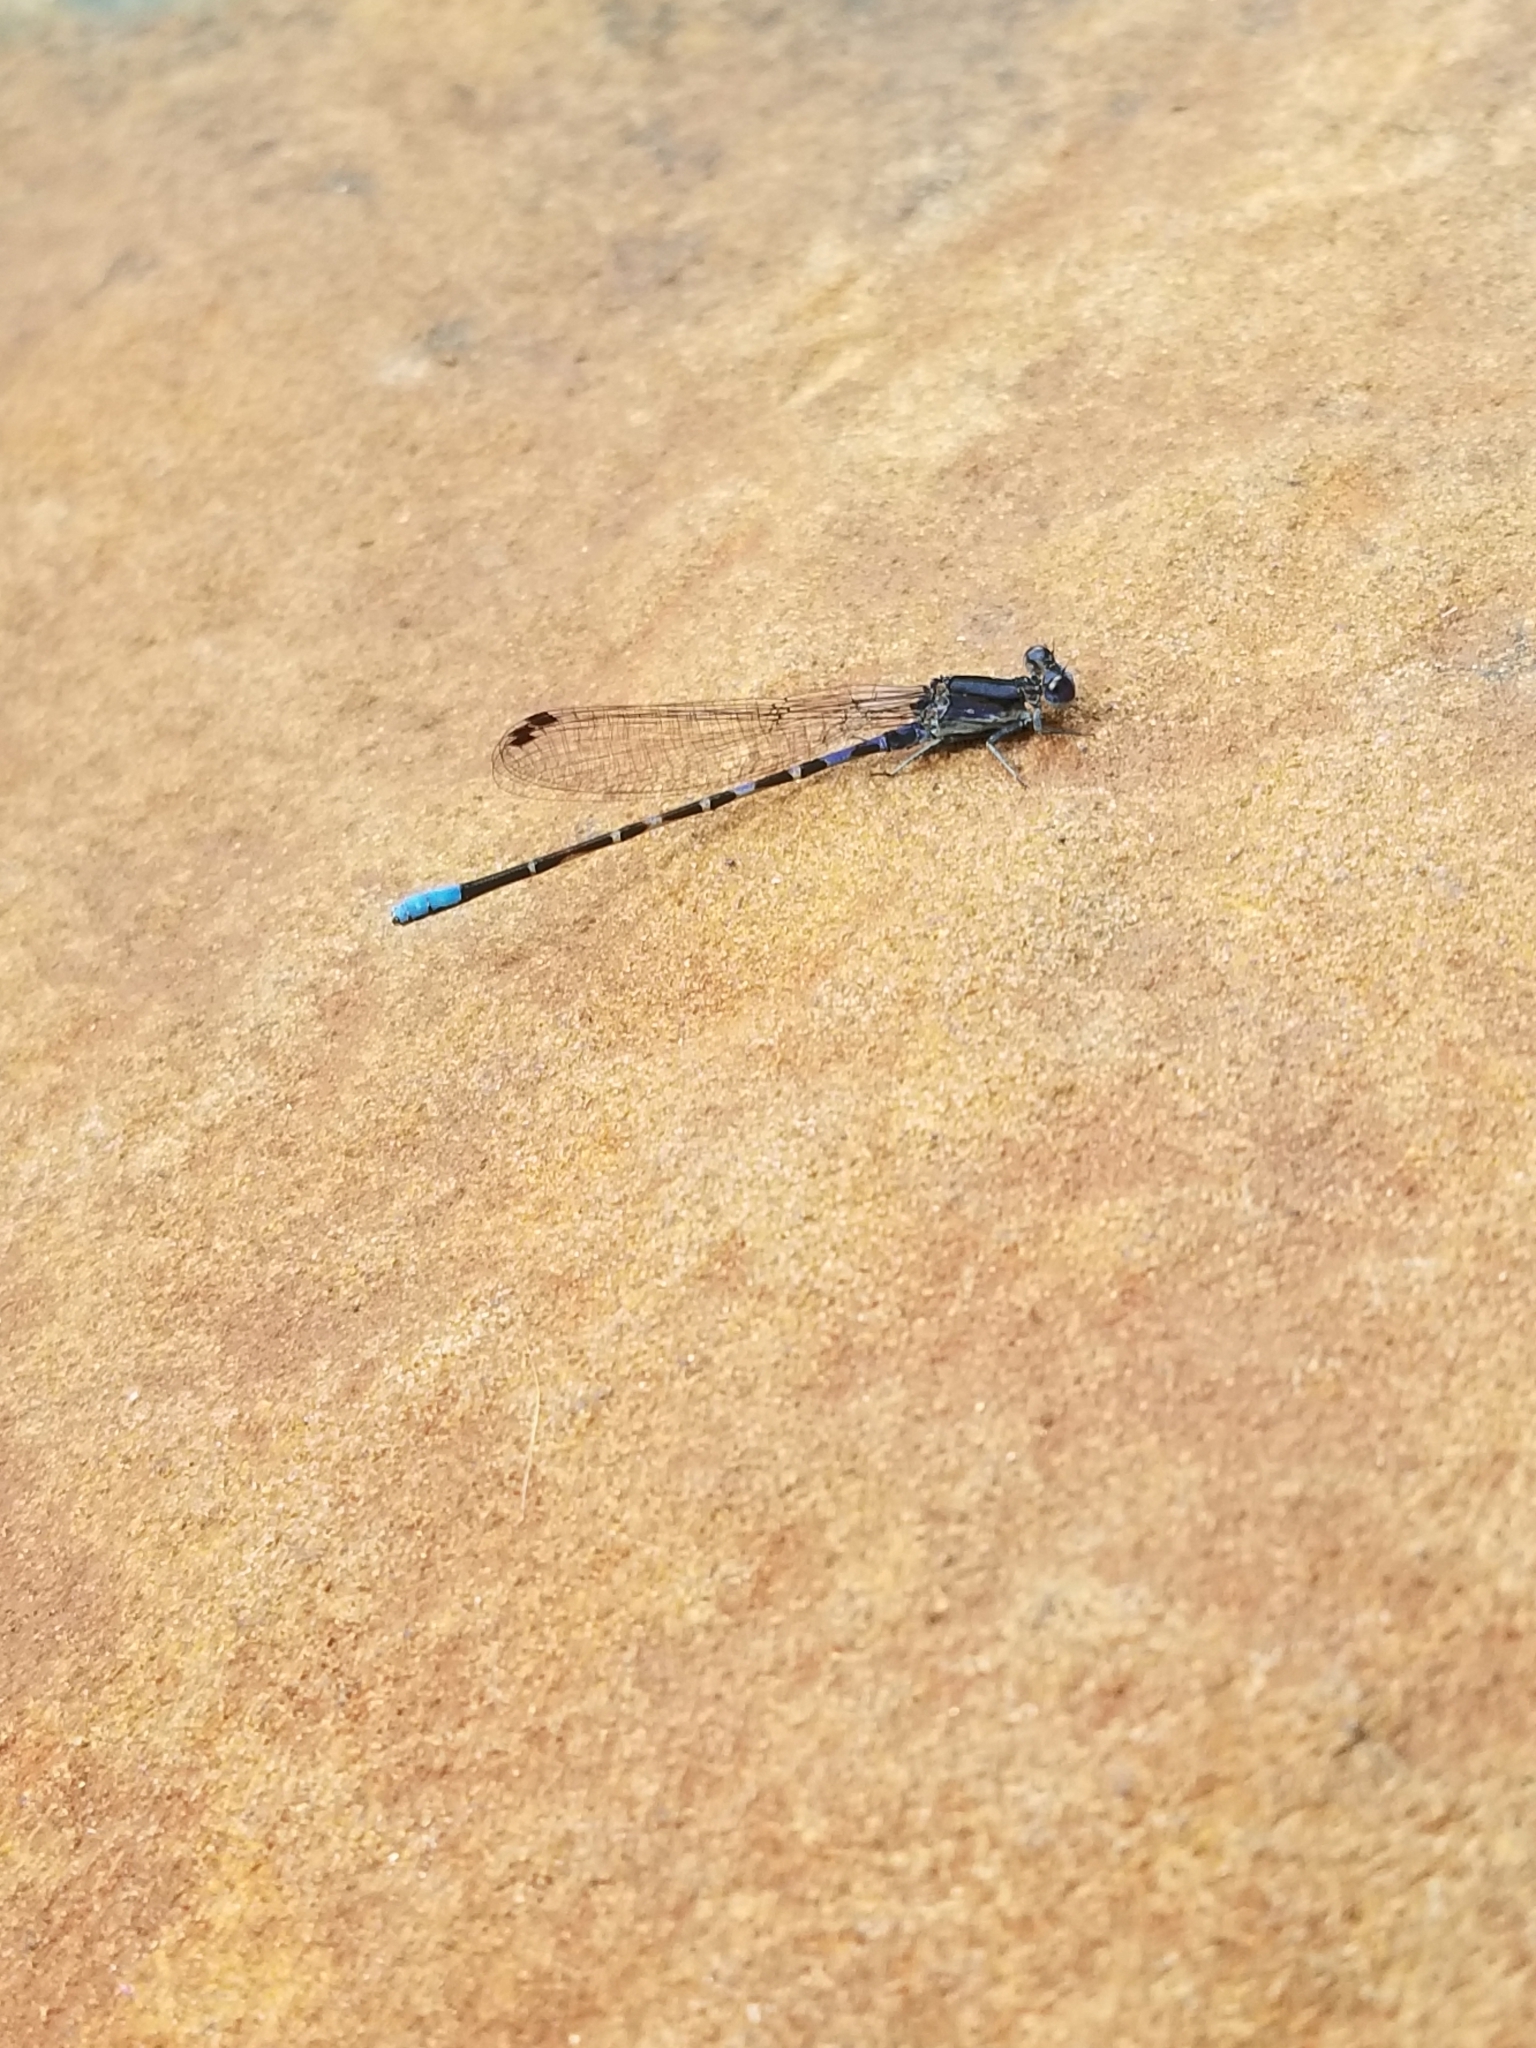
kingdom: Animalia
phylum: Arthropoda
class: Insecta
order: Odonata
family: Coenagrionidae
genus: Argia
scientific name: Argia immunda
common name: Kiowa dancer
